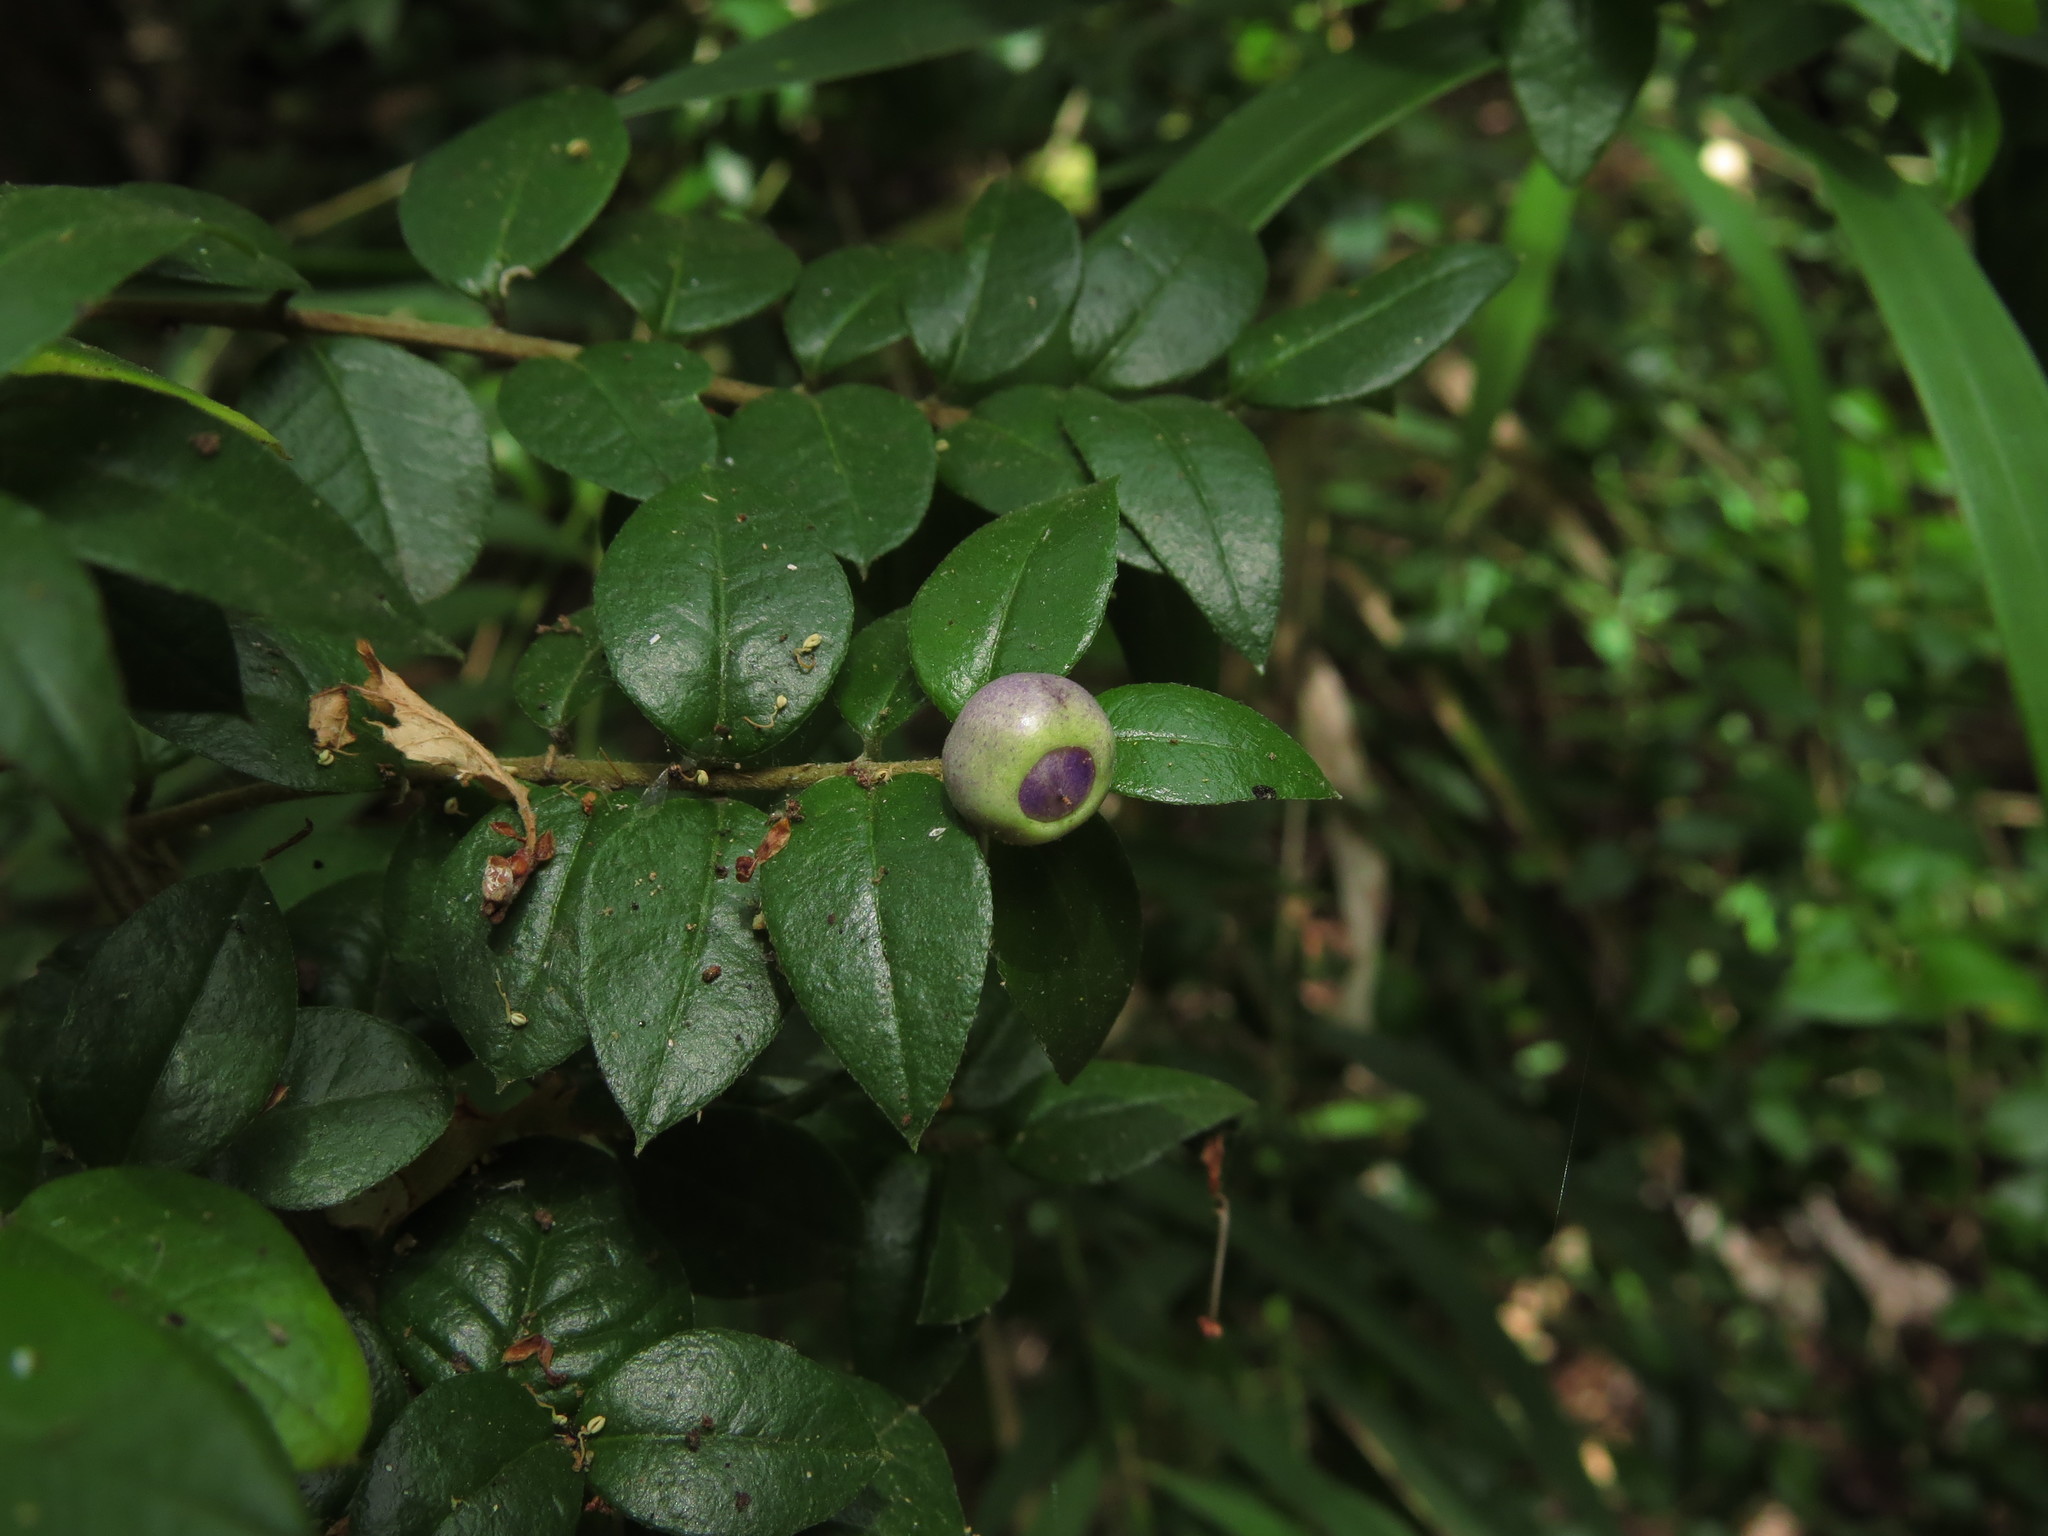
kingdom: Plantae
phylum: Tracheophyta
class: Magnoliopsida
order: Lamiales
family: Verbenaceae
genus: Rhaphithamnus
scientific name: Rhaphithamnus spinosus
